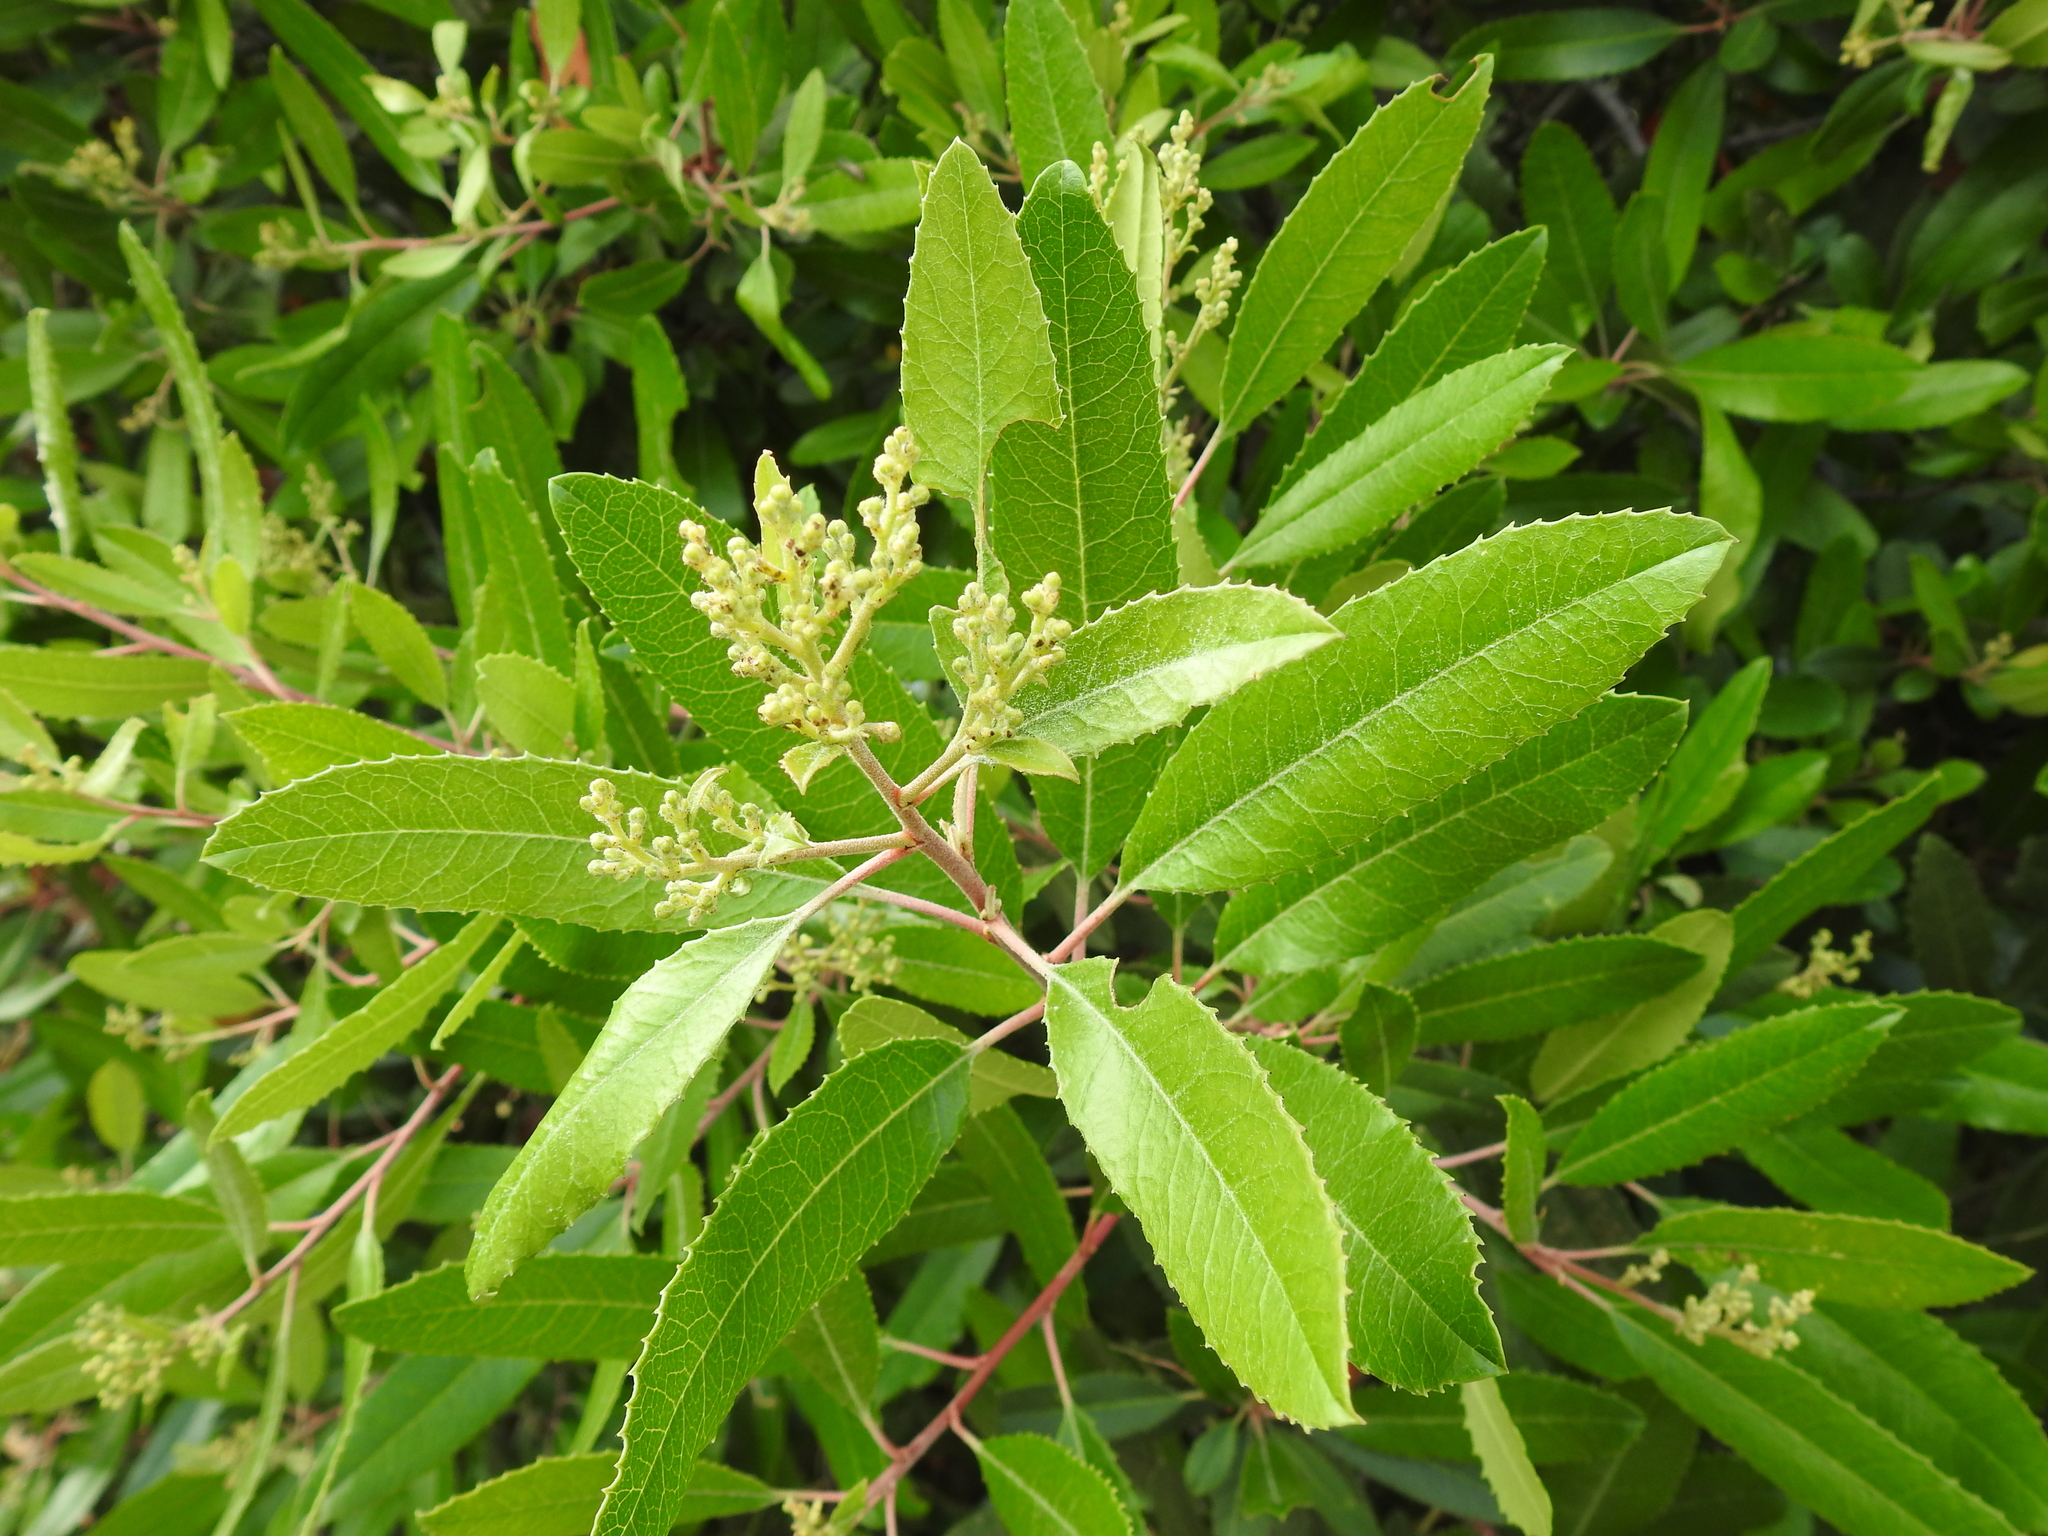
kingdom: Plantae
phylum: Tracheophyta
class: Magnoliopsida
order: Rosales
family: Rosaceae
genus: Heteromeles
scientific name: Heteromeles arbutifolia
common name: California-holly
